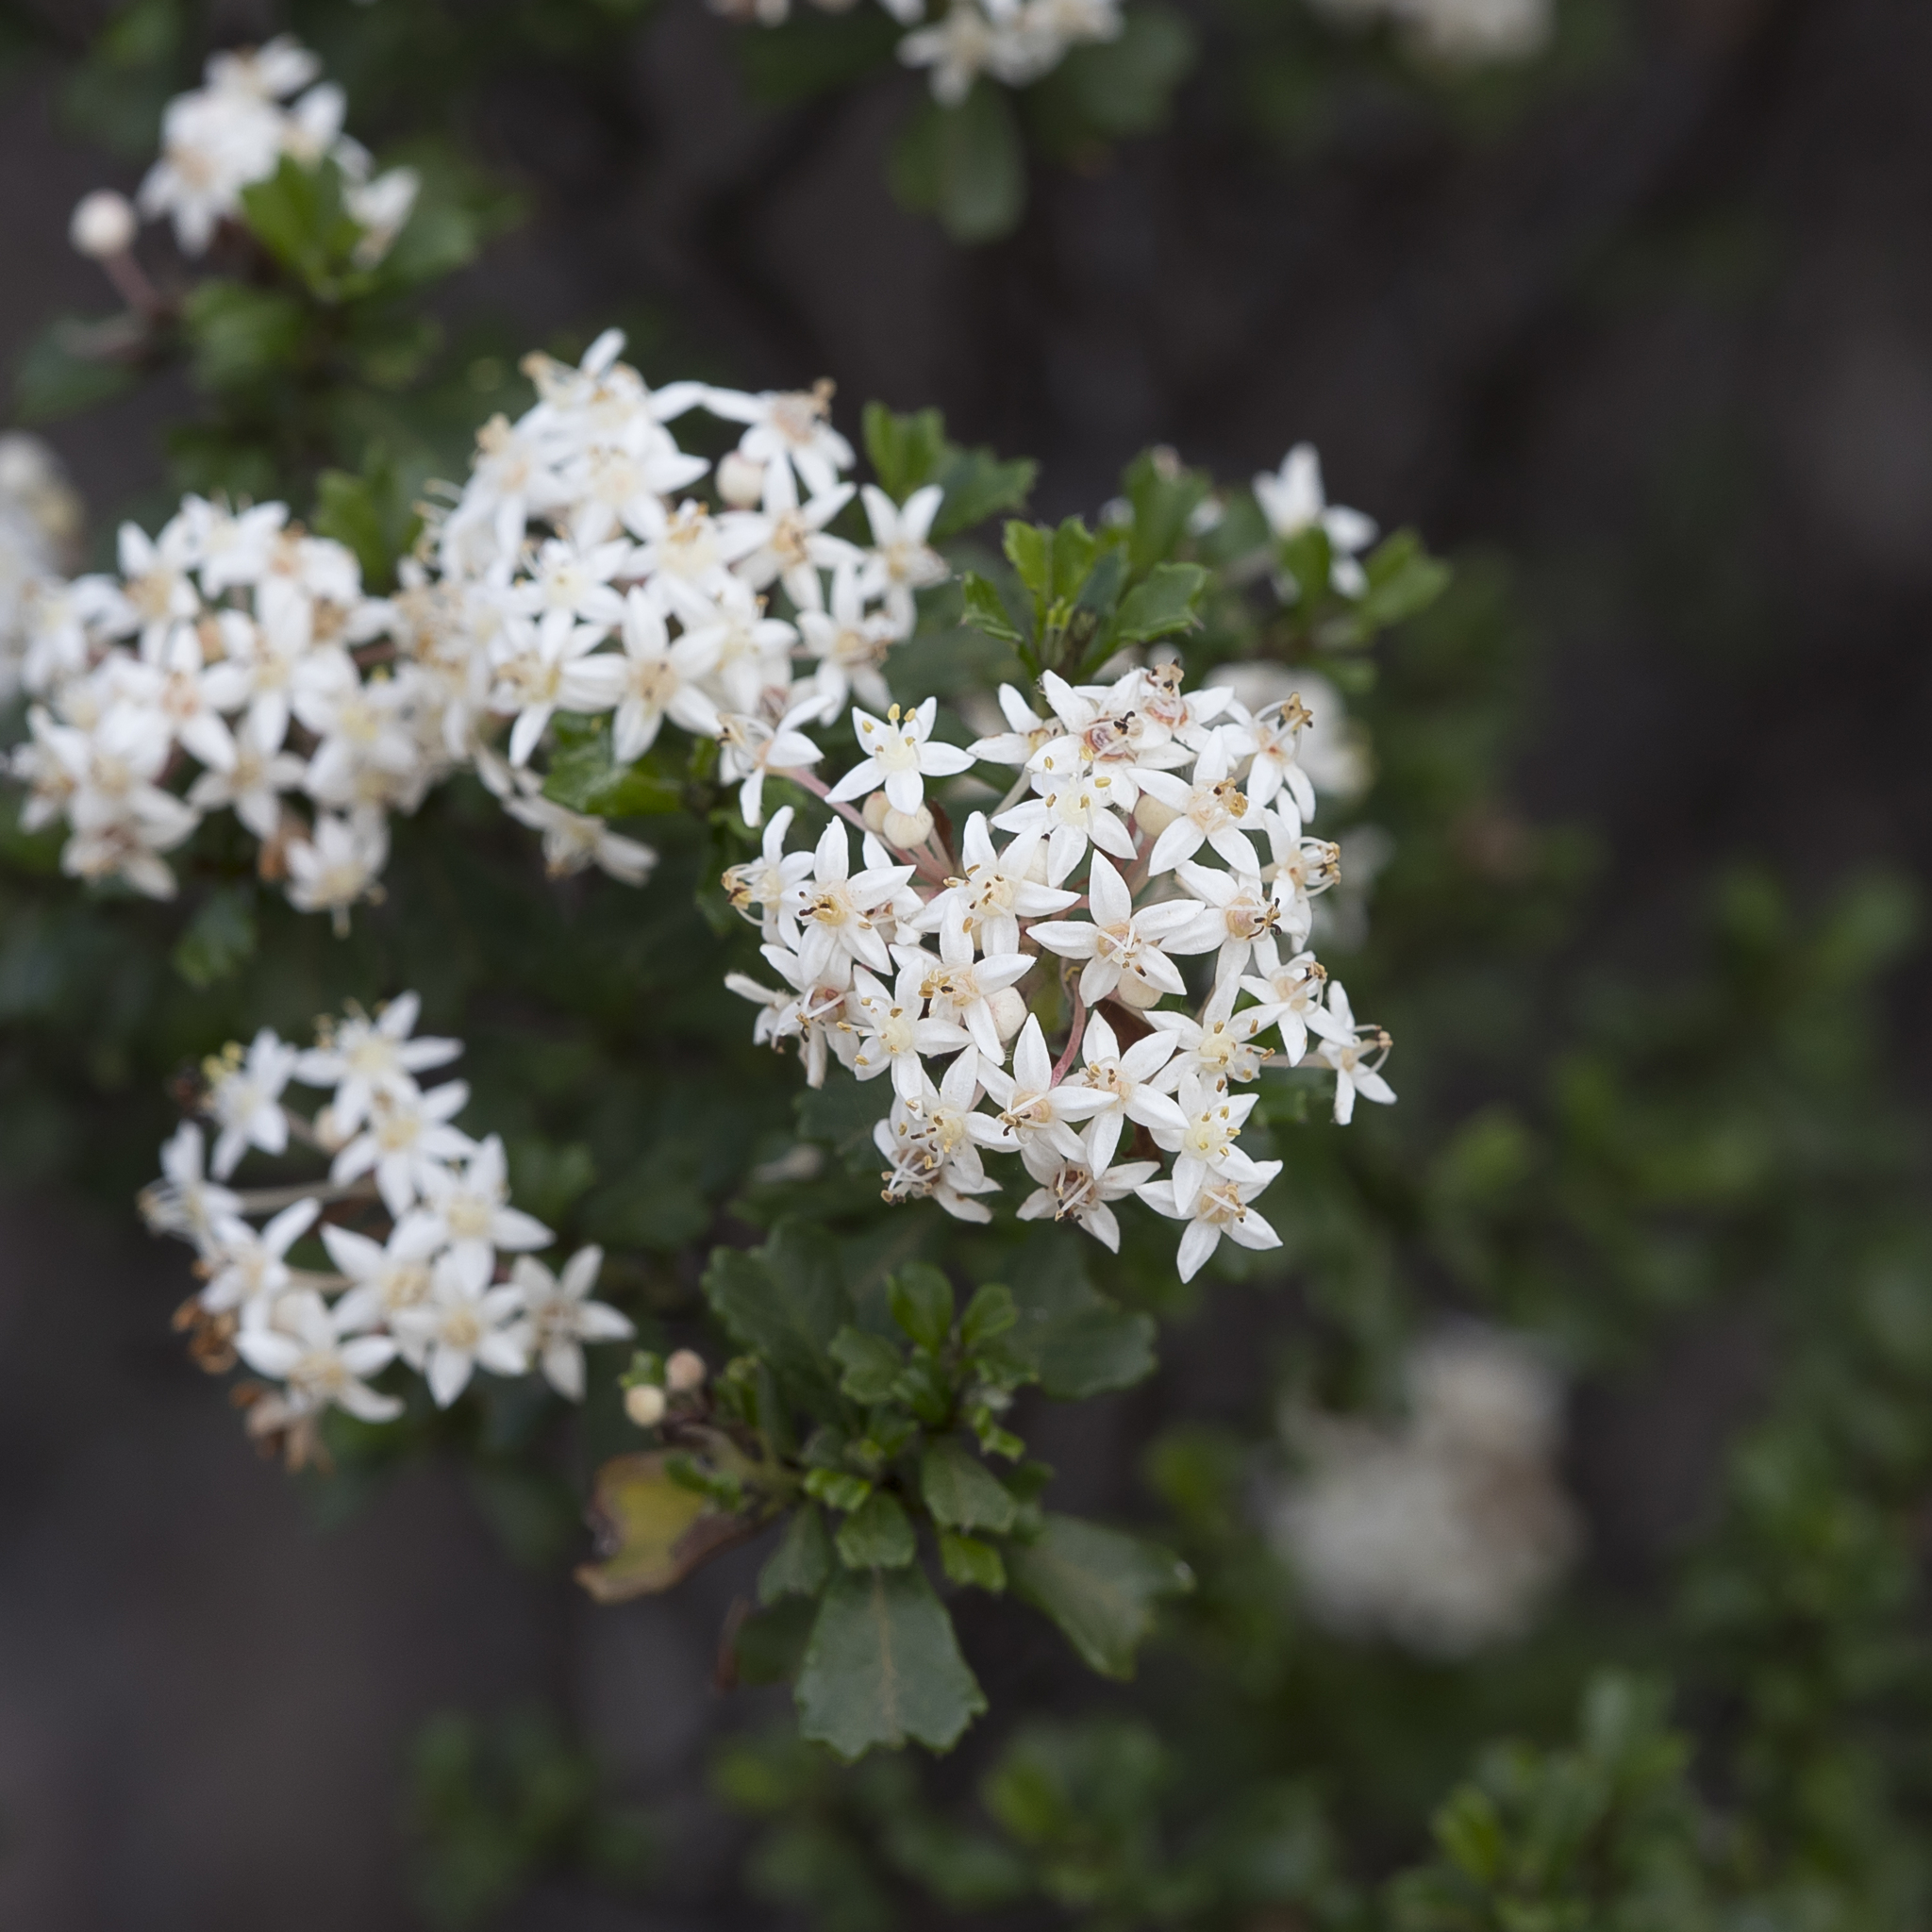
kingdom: Plantae
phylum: Tracheophyta
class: Magnoliopsida
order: Rosales
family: Rhamnaceae
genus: Pomaderris
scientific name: Pomaderris obcordata
